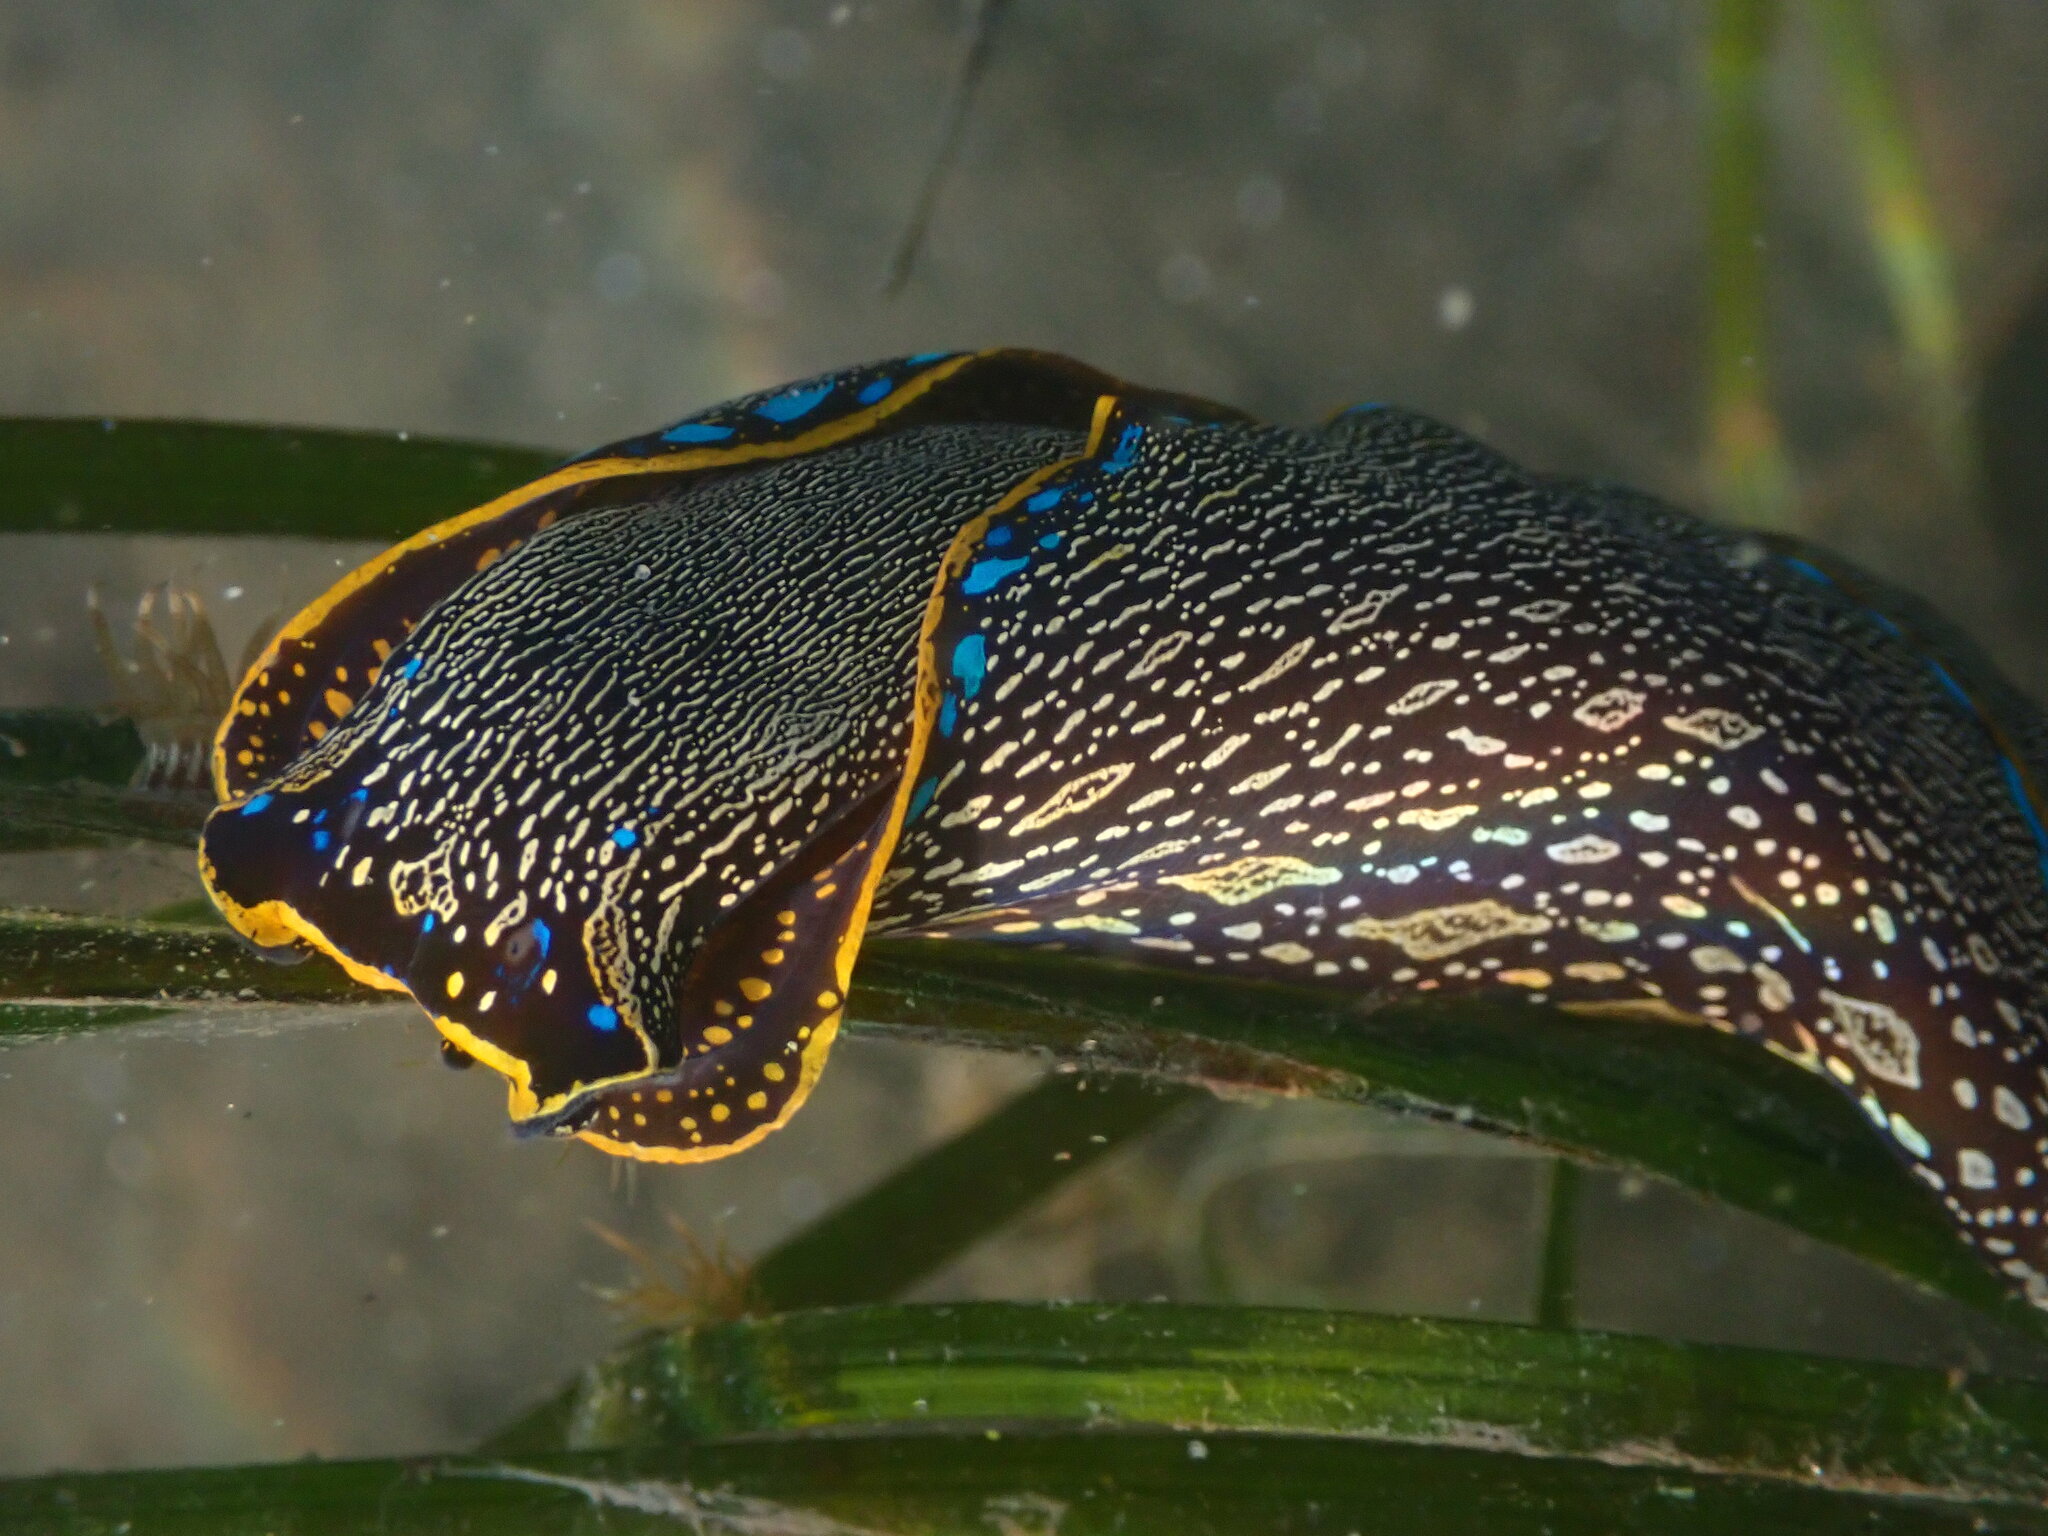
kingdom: Animalia
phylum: Mollusca
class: Gastropoda
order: Cephalaspidea
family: Aglajidae
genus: Navanax
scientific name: Navanax inermis
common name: California aglaja
